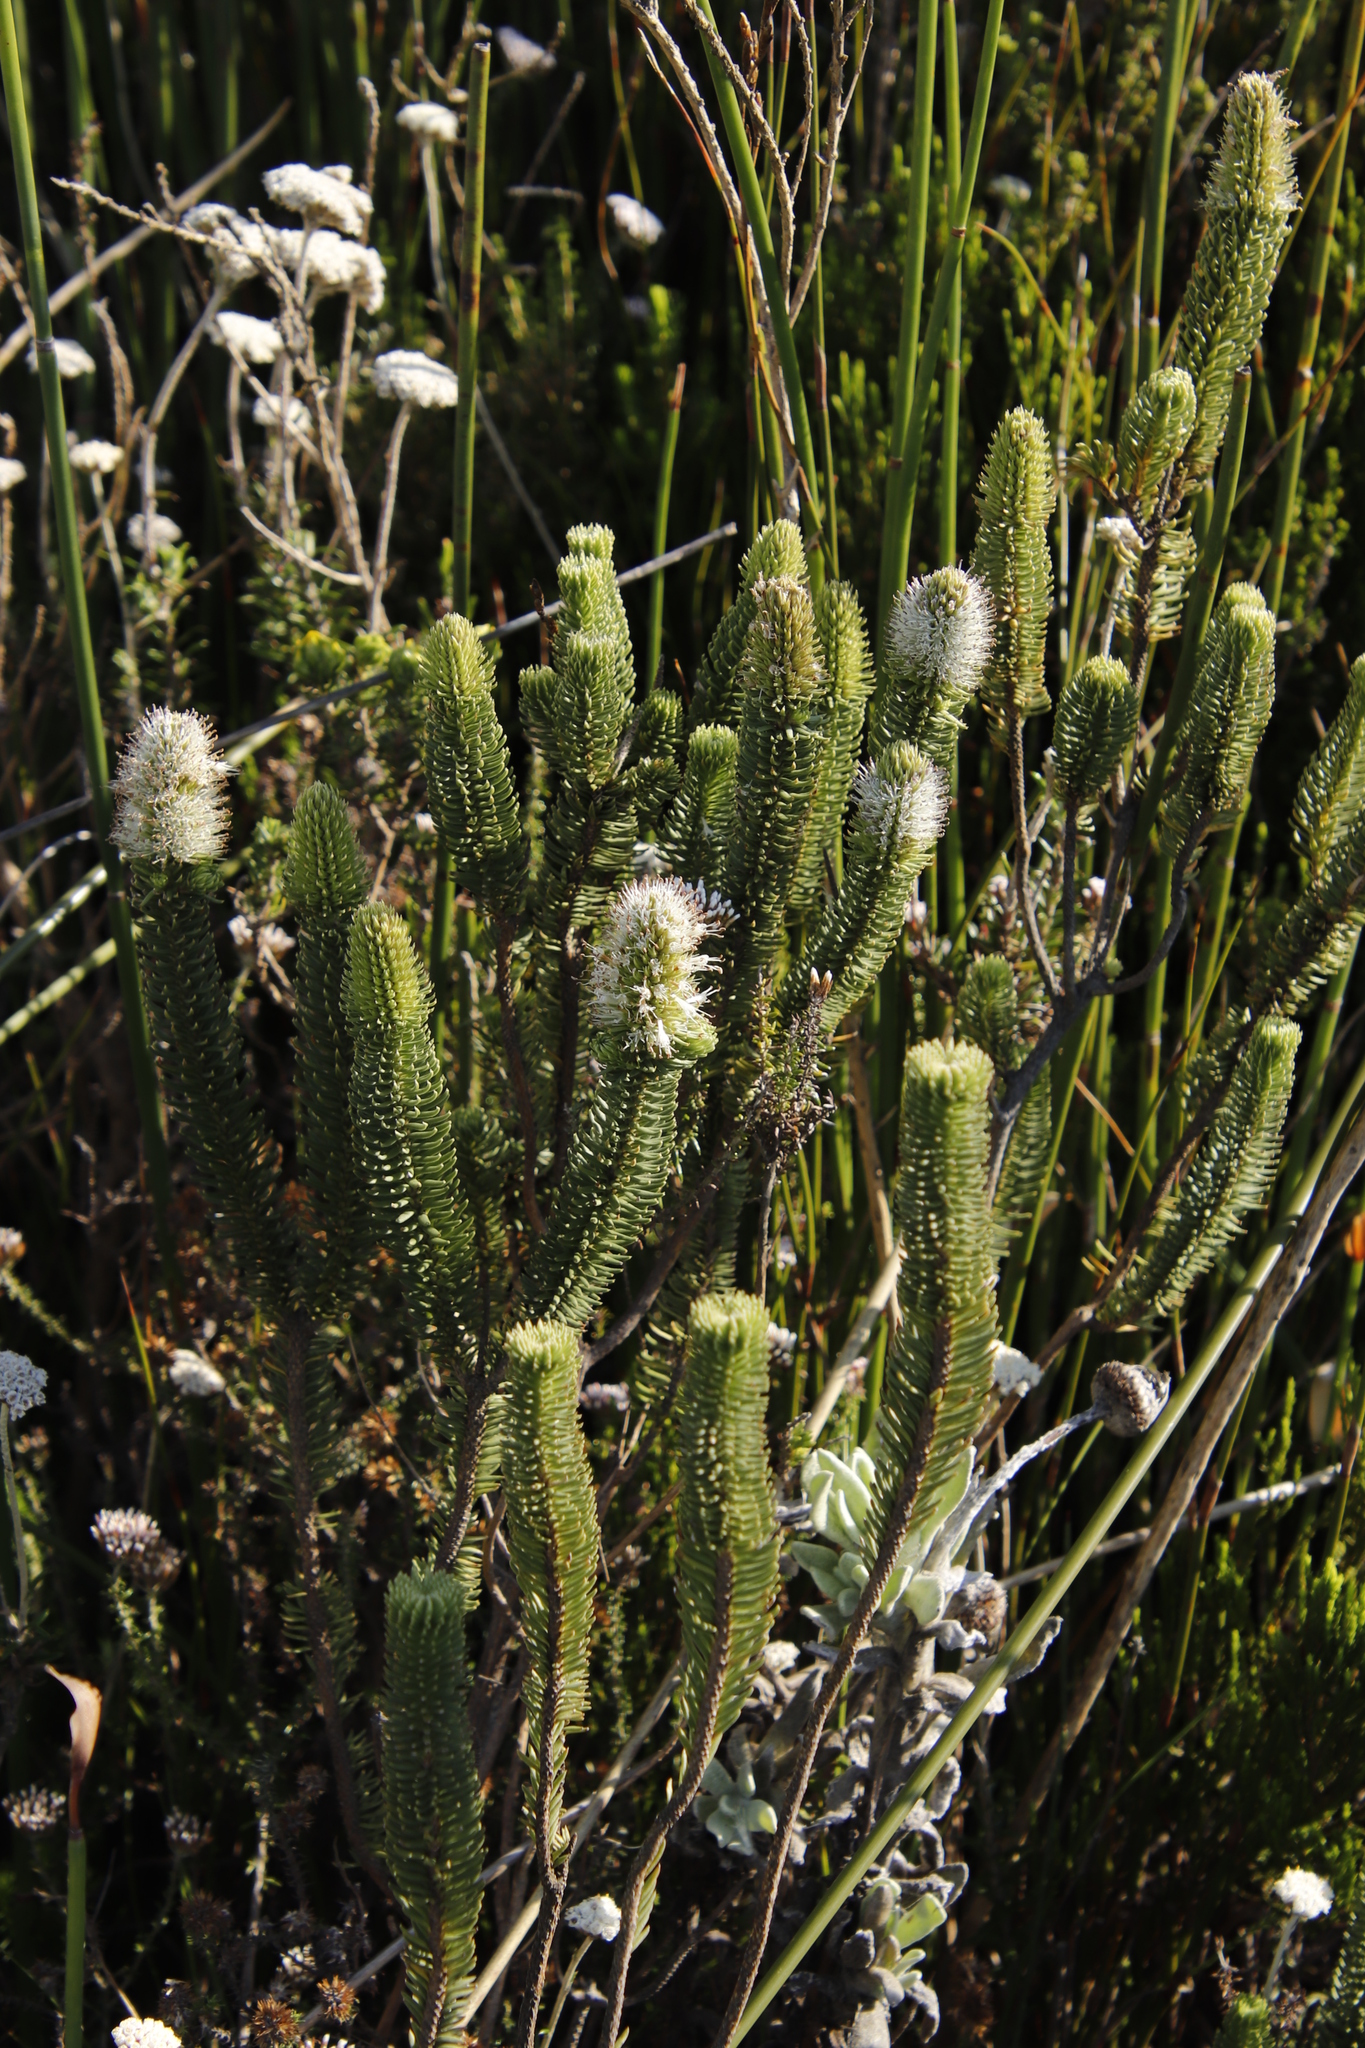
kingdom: Plantae
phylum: Tracheophyta
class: Magnoliopsida
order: Lamiales
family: Stilbaceae
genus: Stilbe
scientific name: Stilbe vestita
